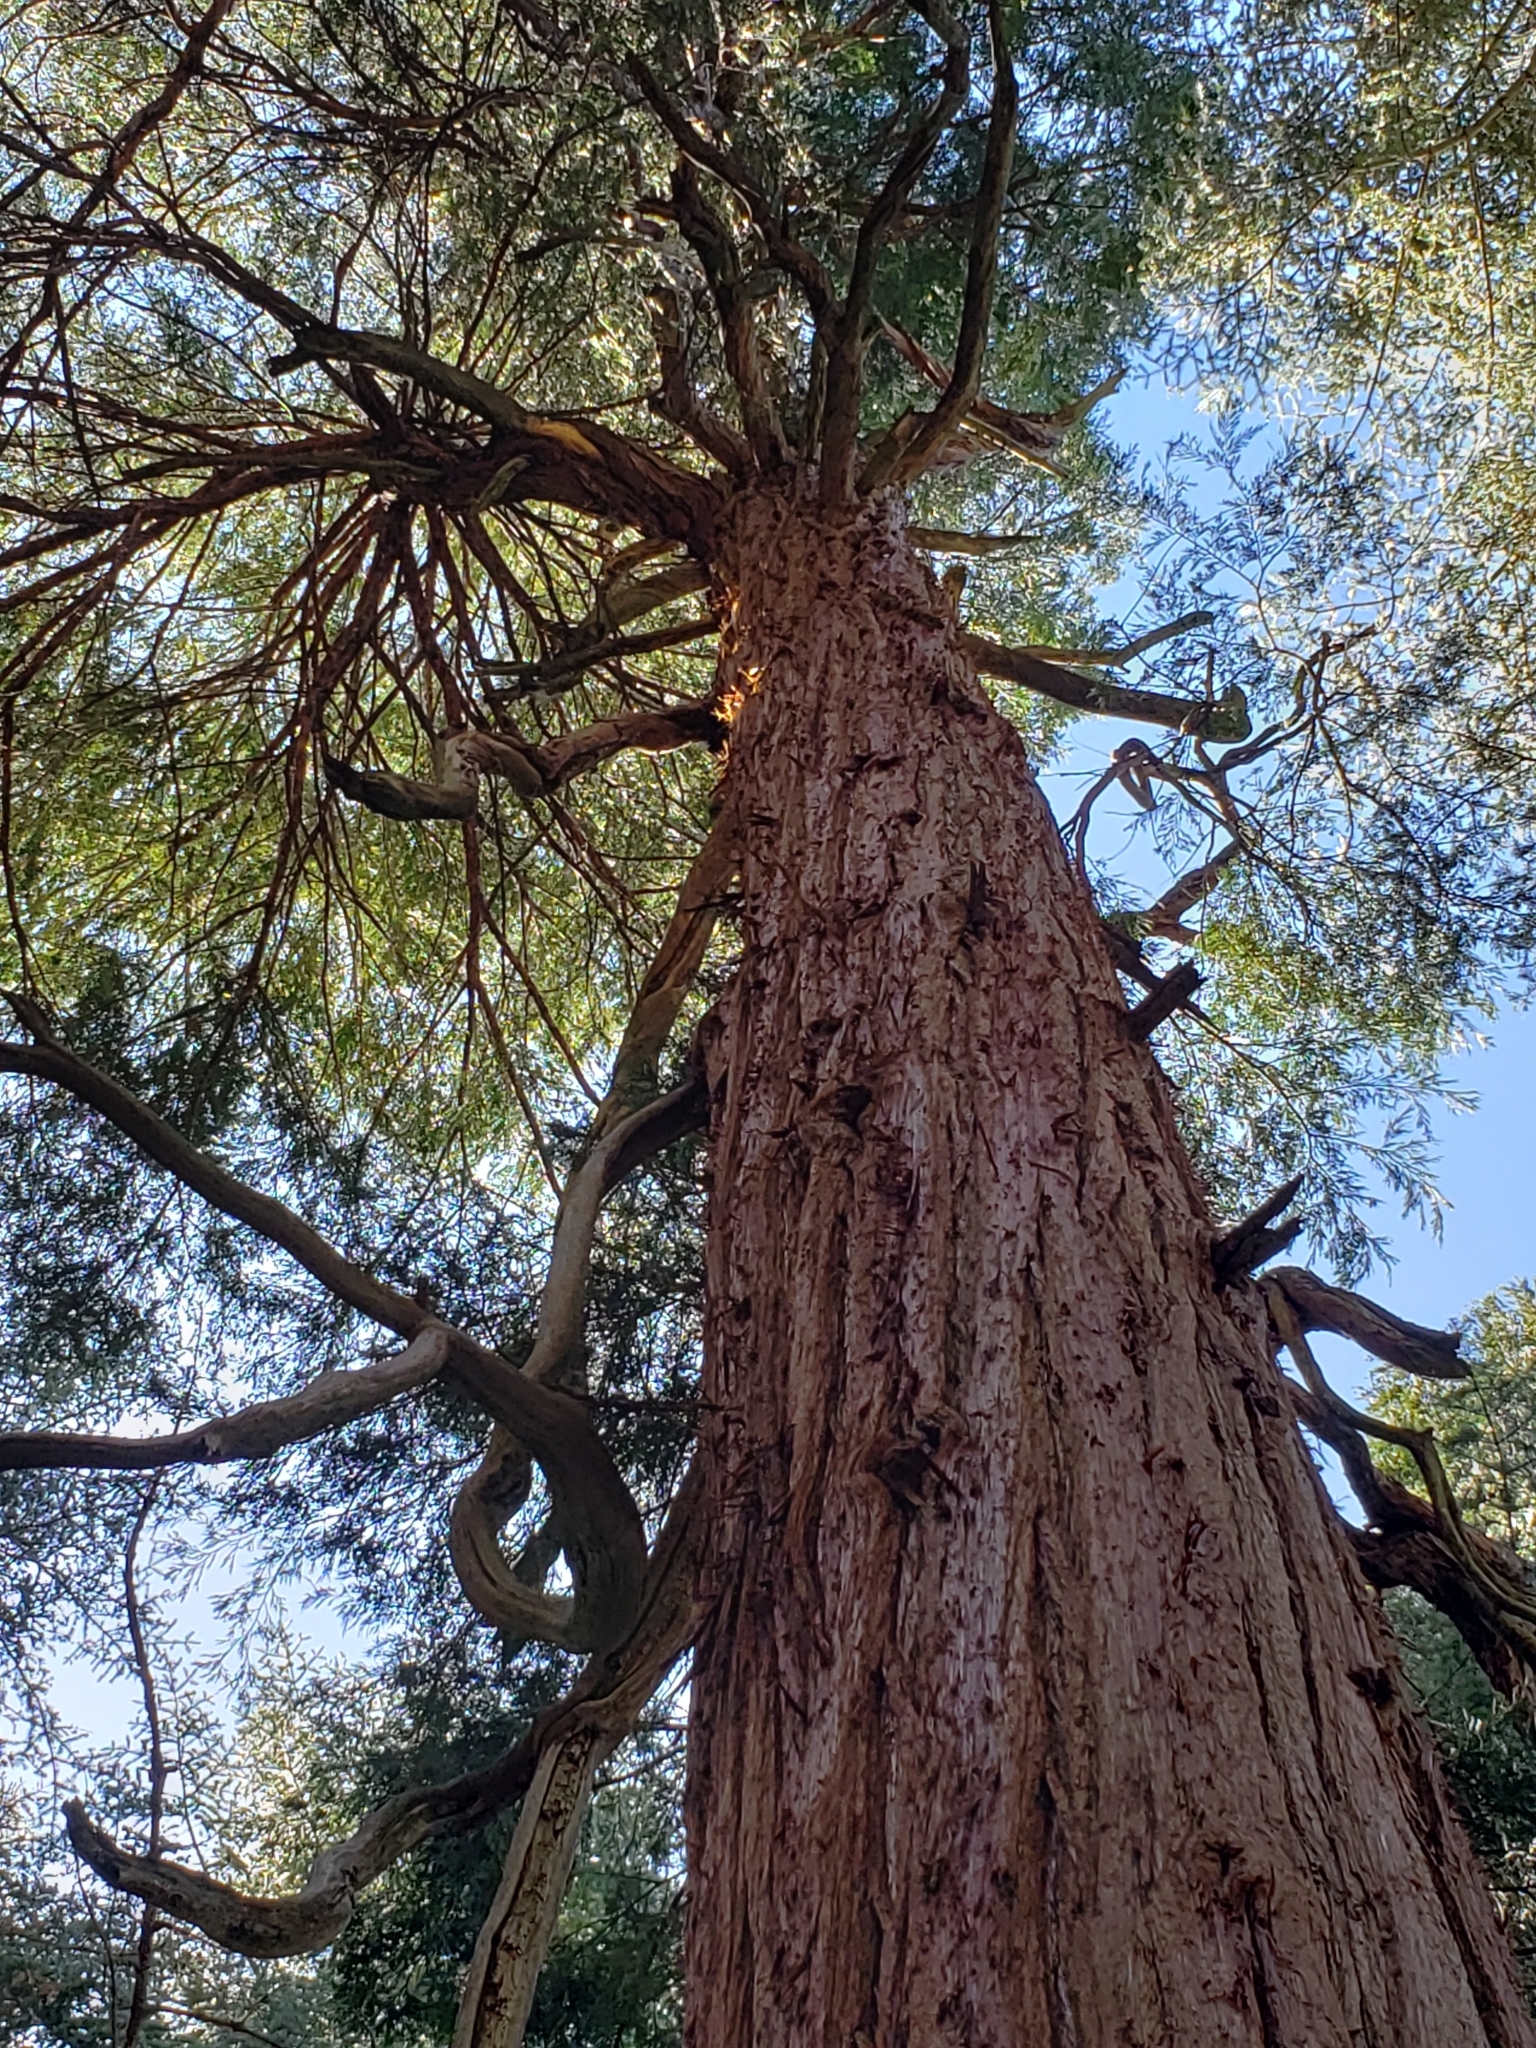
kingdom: Plantae
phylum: Tracheophyta
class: Pinopsida
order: Pinales
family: Cupressaceae
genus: Calocedrus
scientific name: Calocedrus decurrens
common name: Californian incense-cedar
